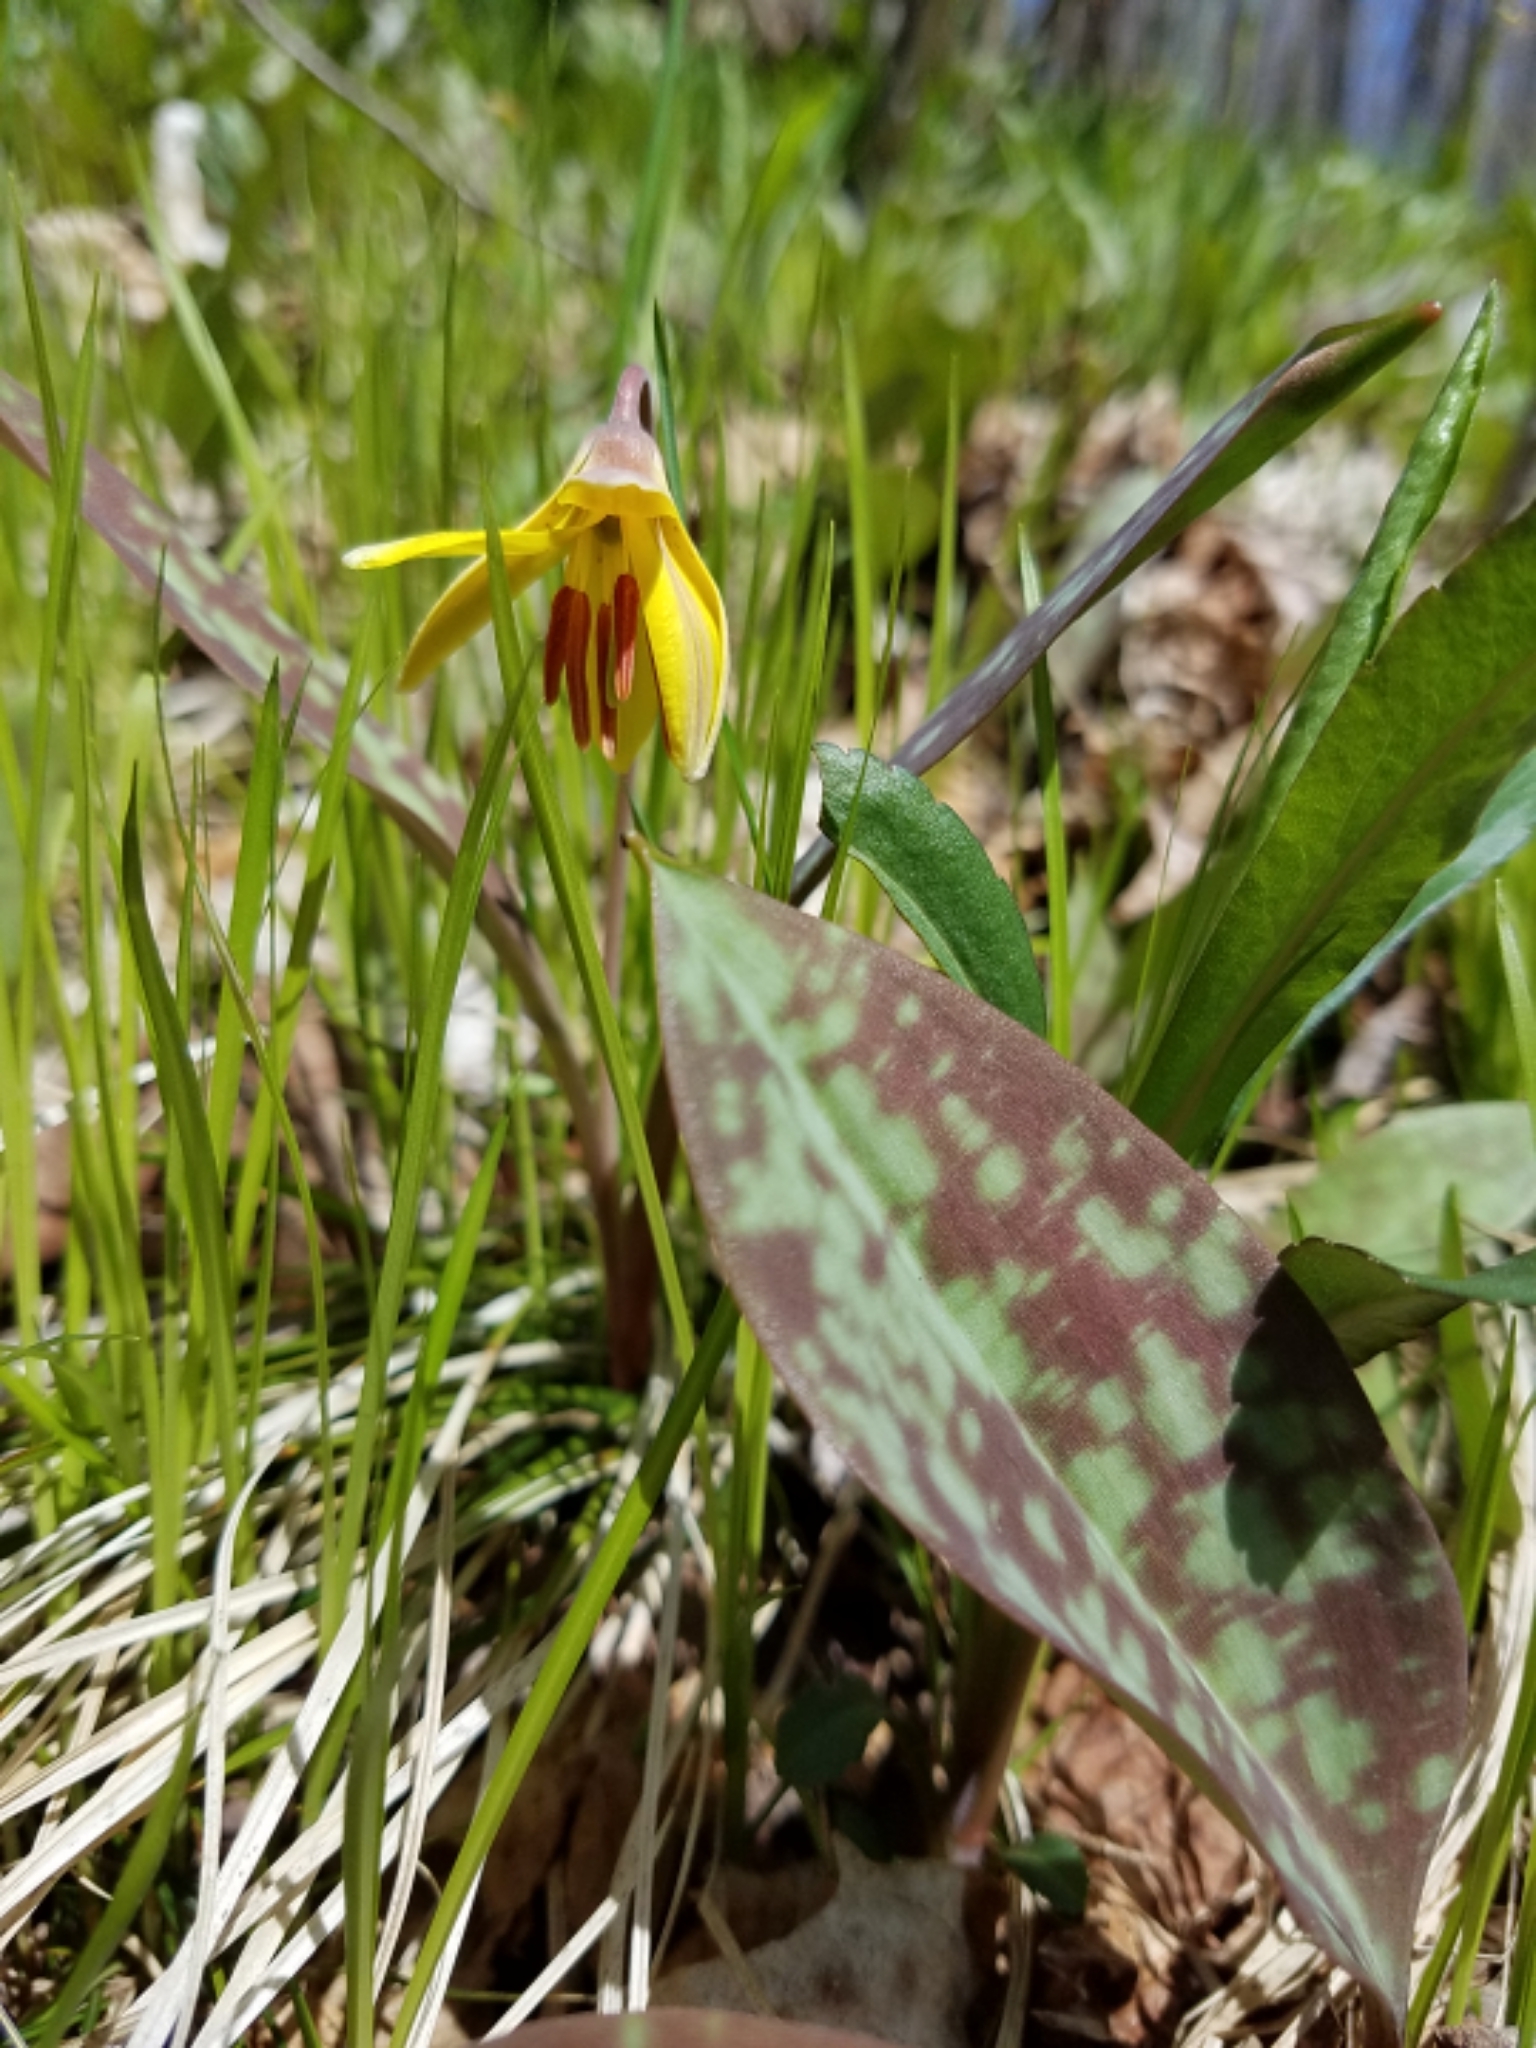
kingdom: Plantae
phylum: Tracheophyta
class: Liliopsida
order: Liliales
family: Liliaceae
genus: Erythronium
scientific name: Erythronium americanum
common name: Yellow adder's-tongue
